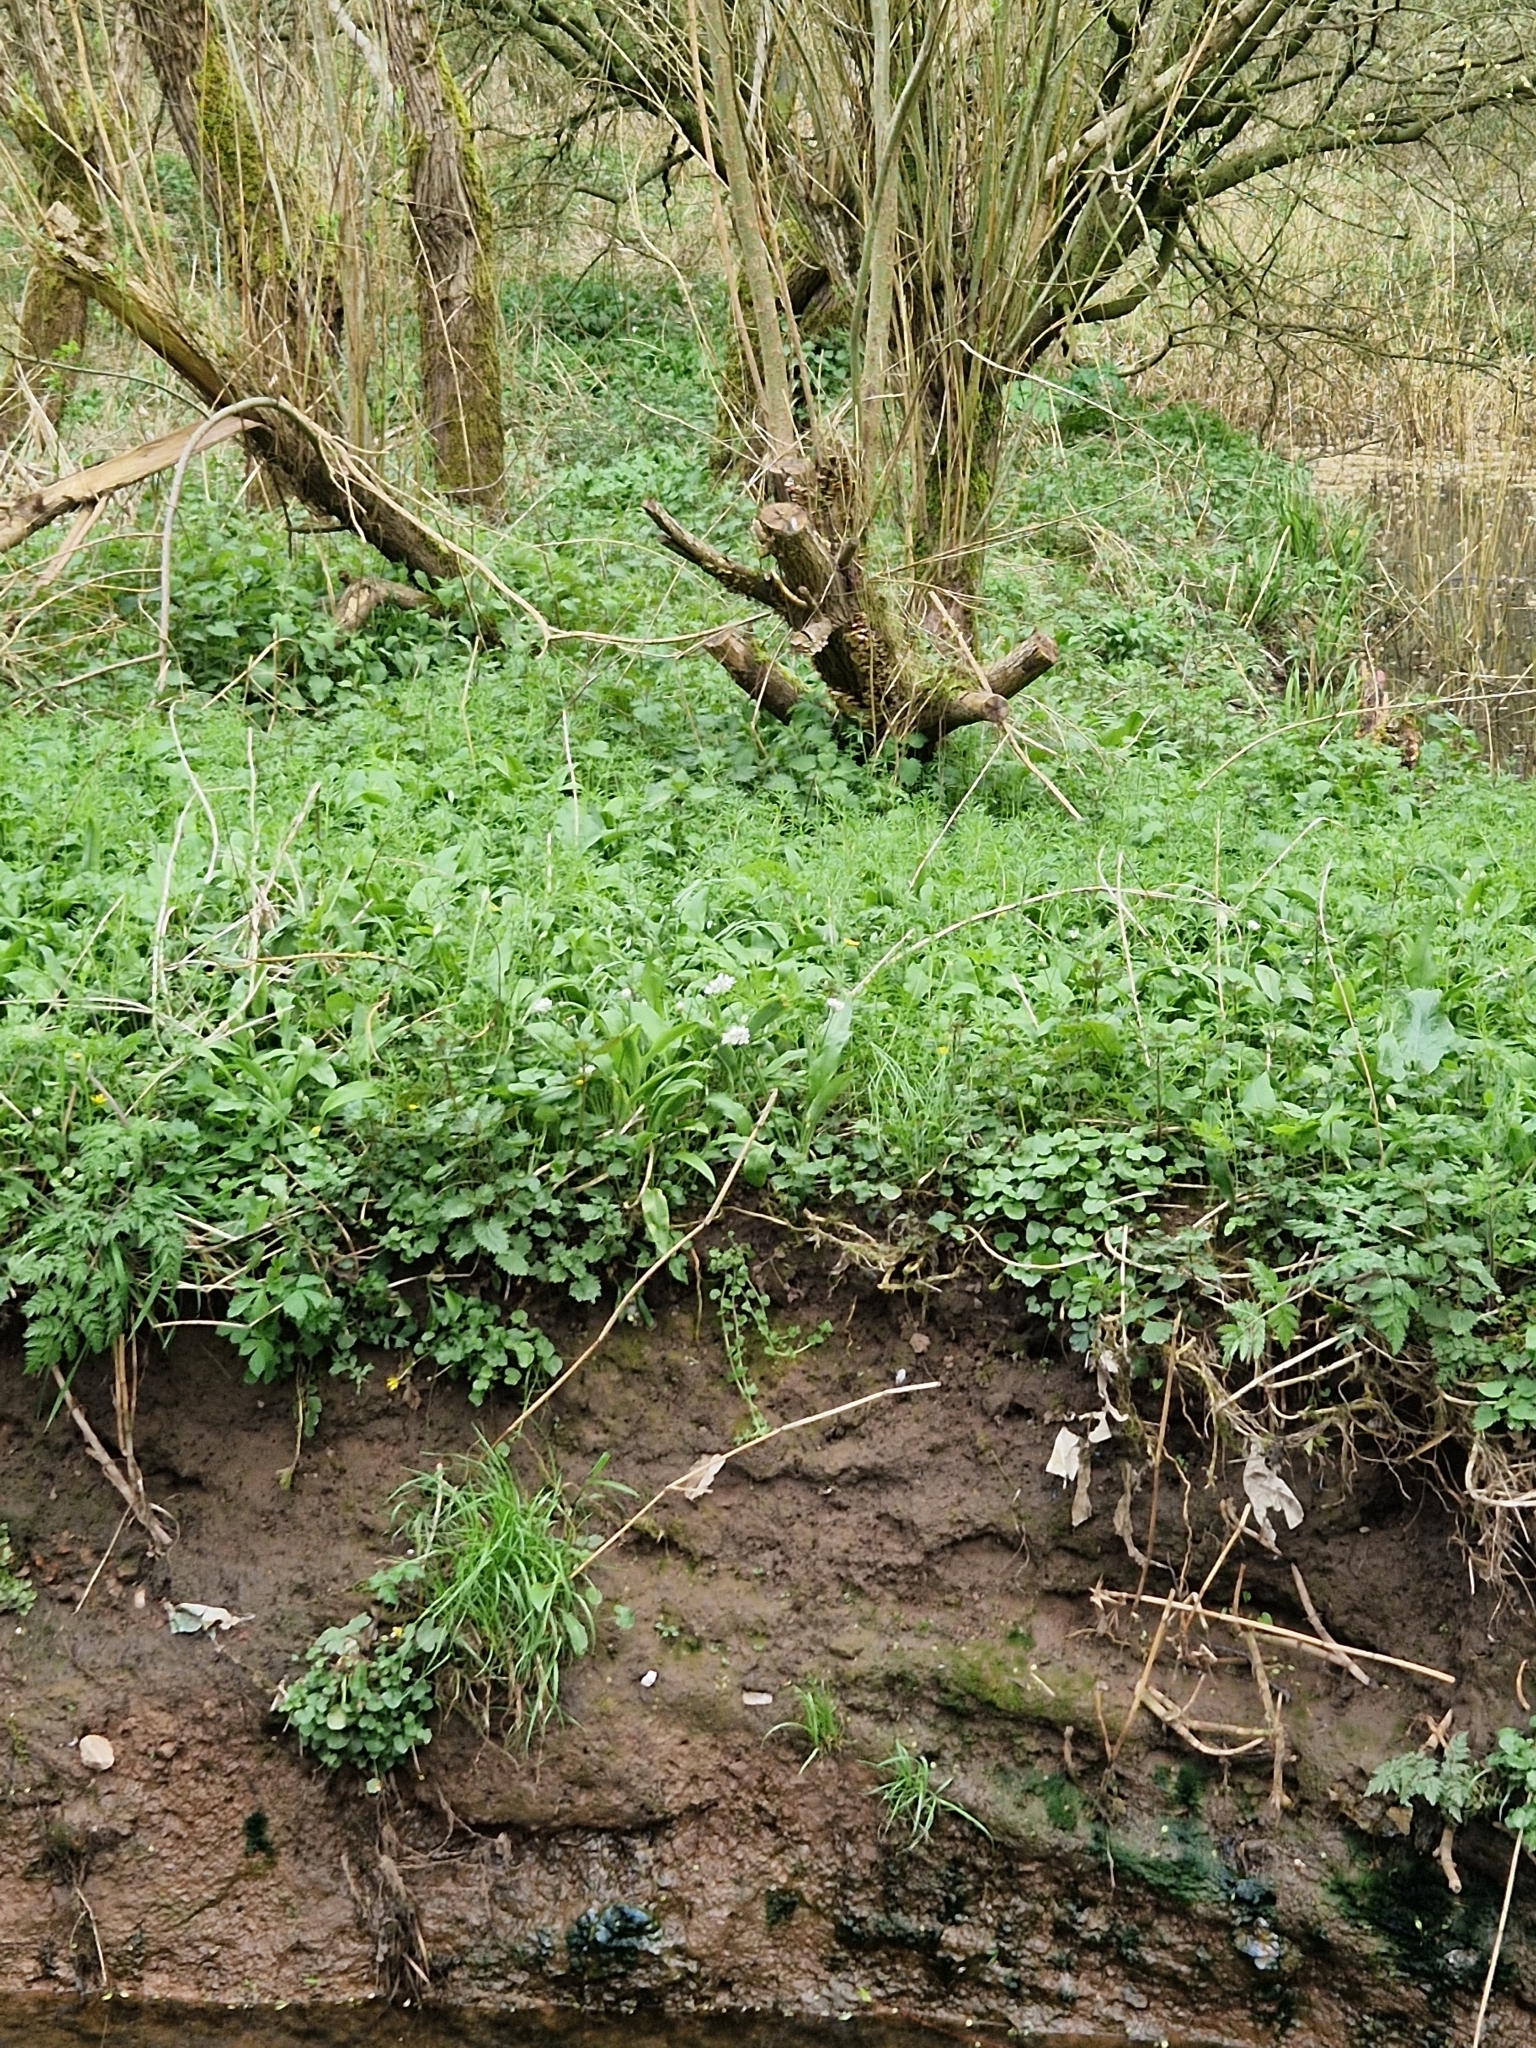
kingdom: Plantae
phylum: Tracheophyta
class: Liliopsida
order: Asparagales
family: Amaryllidaceae
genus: Allium
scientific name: Allium ursinum
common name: Ramsons
